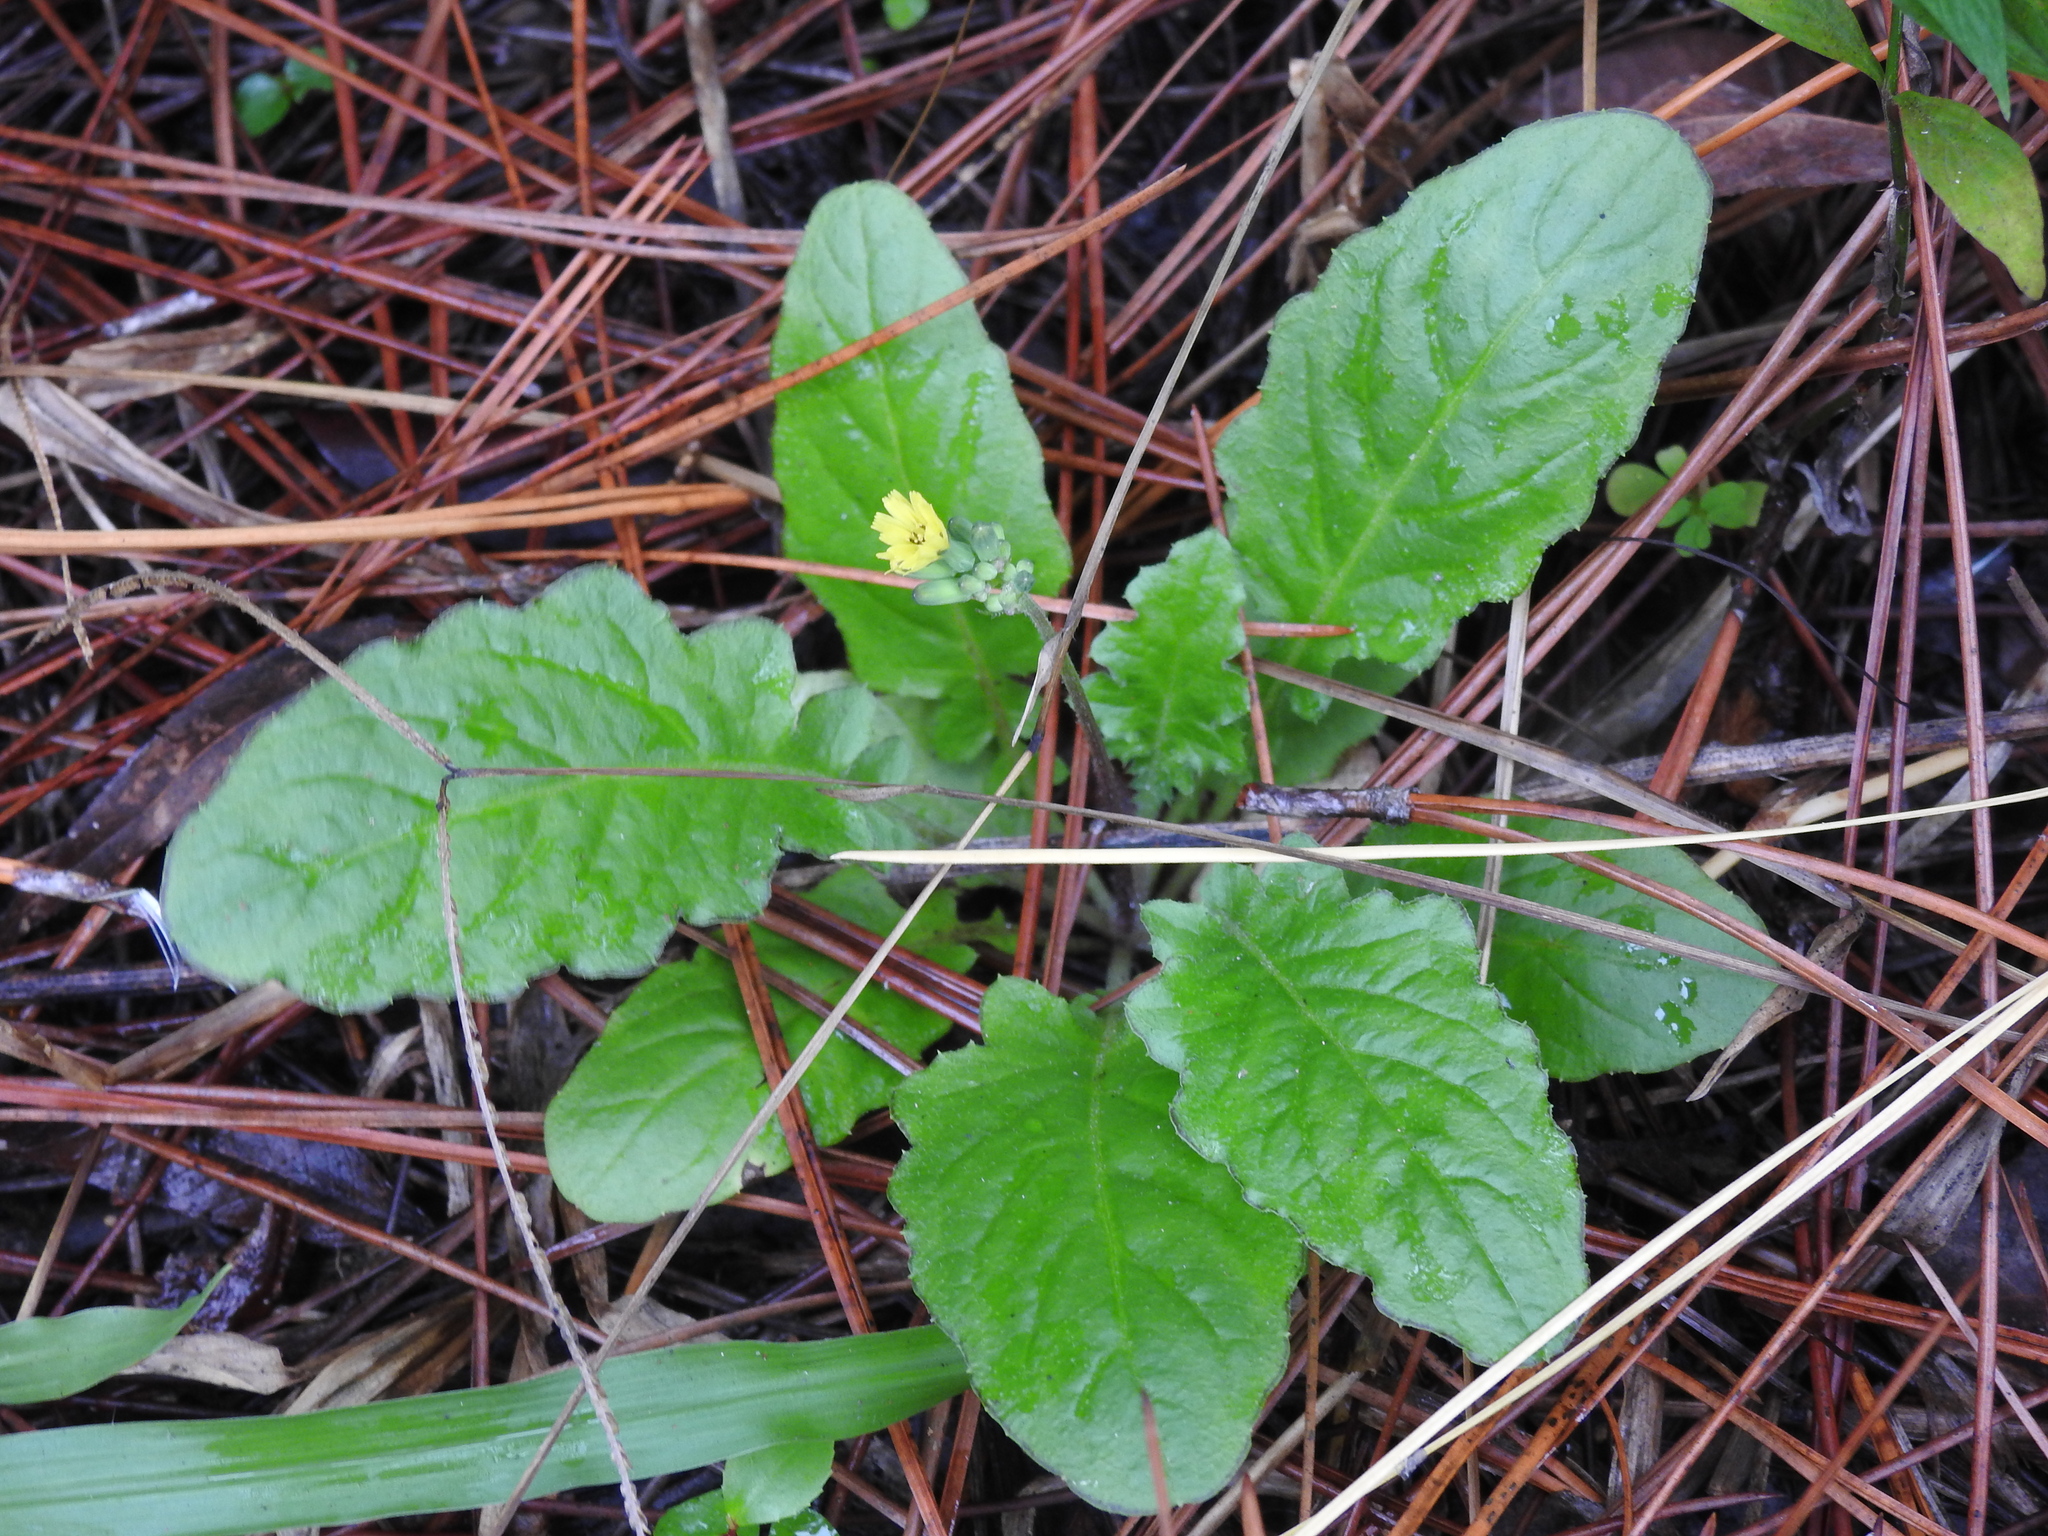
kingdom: Plantae
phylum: Tracheophyta
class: Magnoliopsida
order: Asterales
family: Asteraceae
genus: Youngia
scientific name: Youngia japonica
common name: Oriental false hawksbeard
